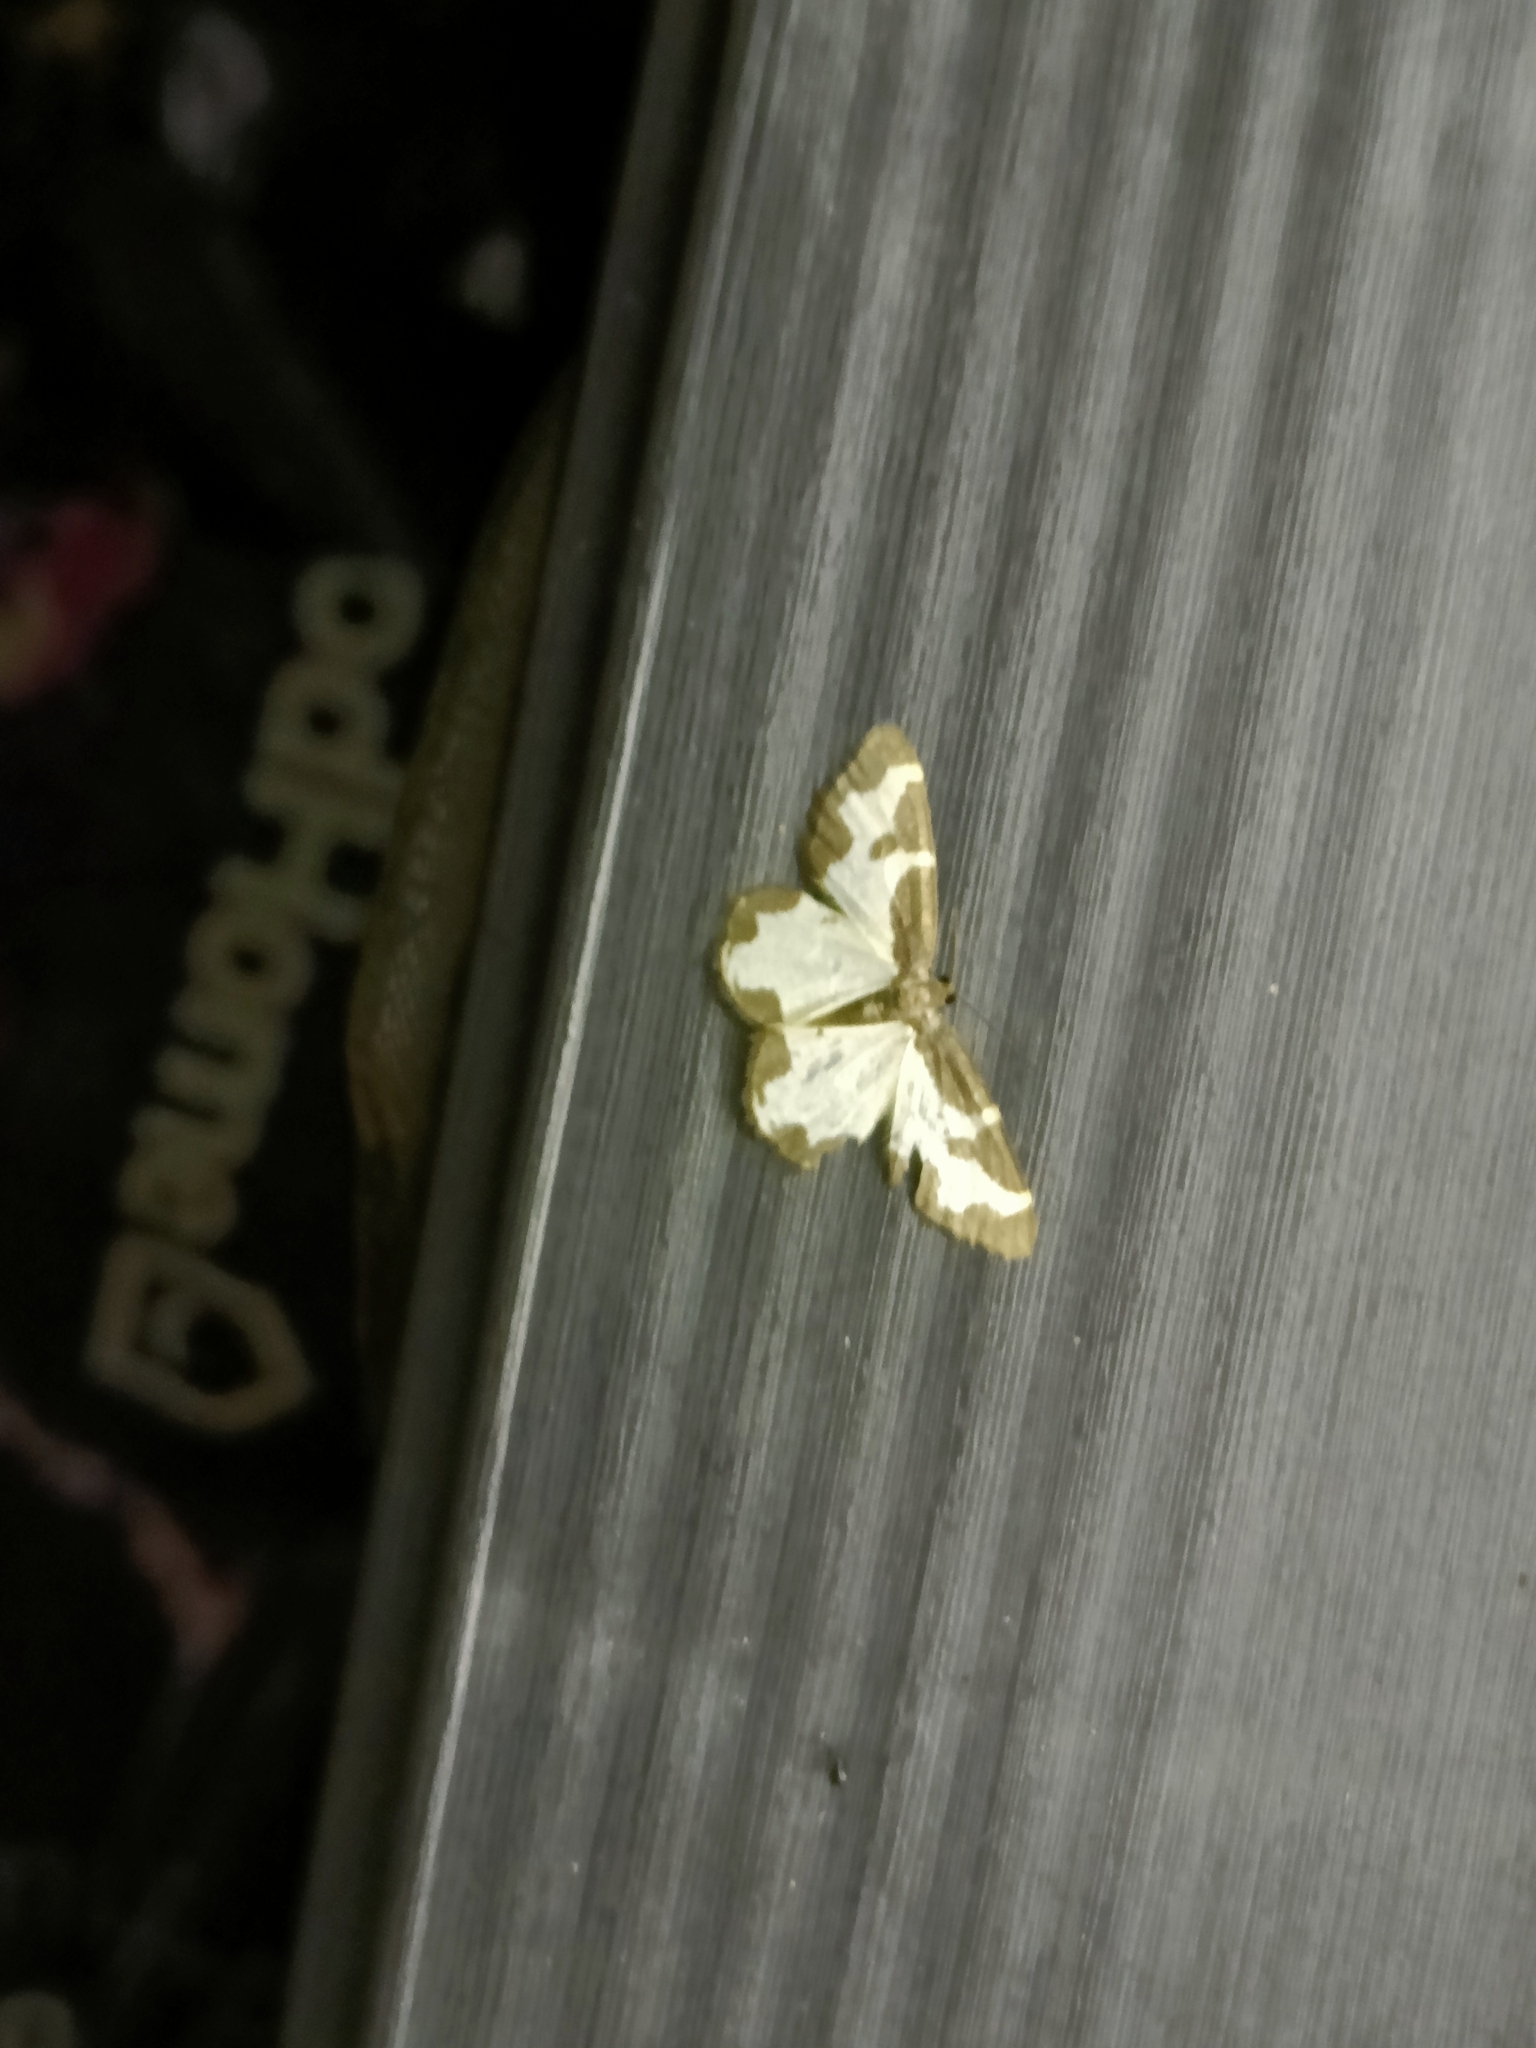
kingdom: Animalia
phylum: Arthropoda
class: Insecta
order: Lepidoptera
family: Geometridae
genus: Lomaspilis
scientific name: Lomaspilis marginata
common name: Clouded border
